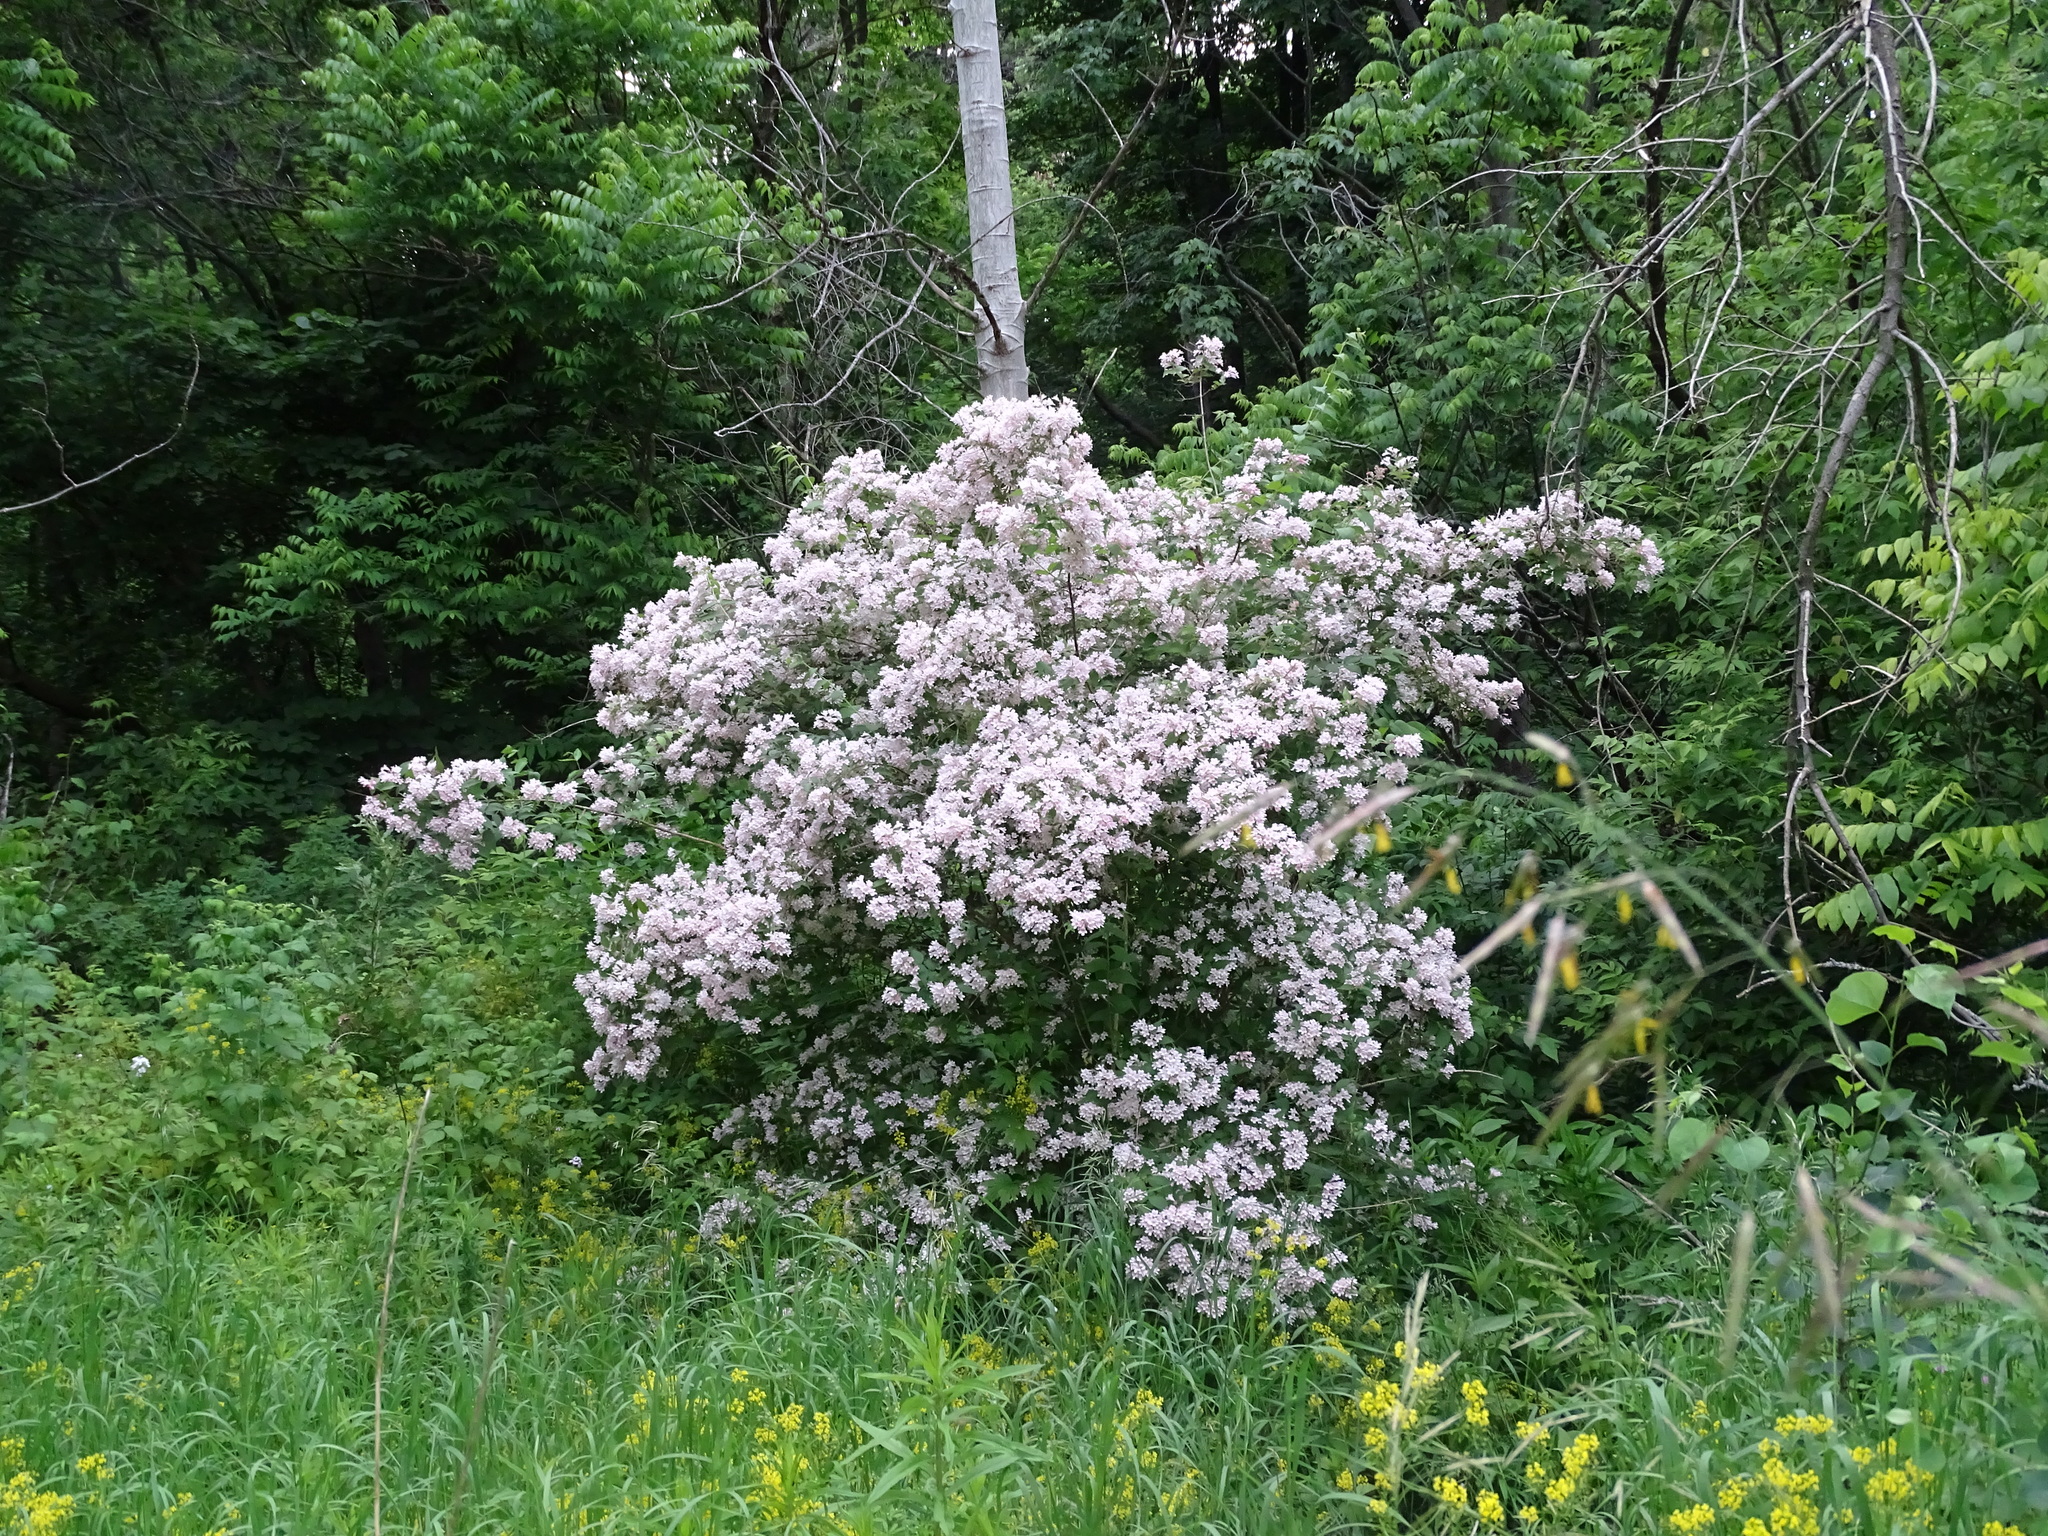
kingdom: Plantae
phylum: Tracheophyta
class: Magnoliopsida
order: Dipsacales
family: Caprifoliaceae
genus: Kolkwitzia
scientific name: Kolkwitzia amabilis
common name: Beautybush
